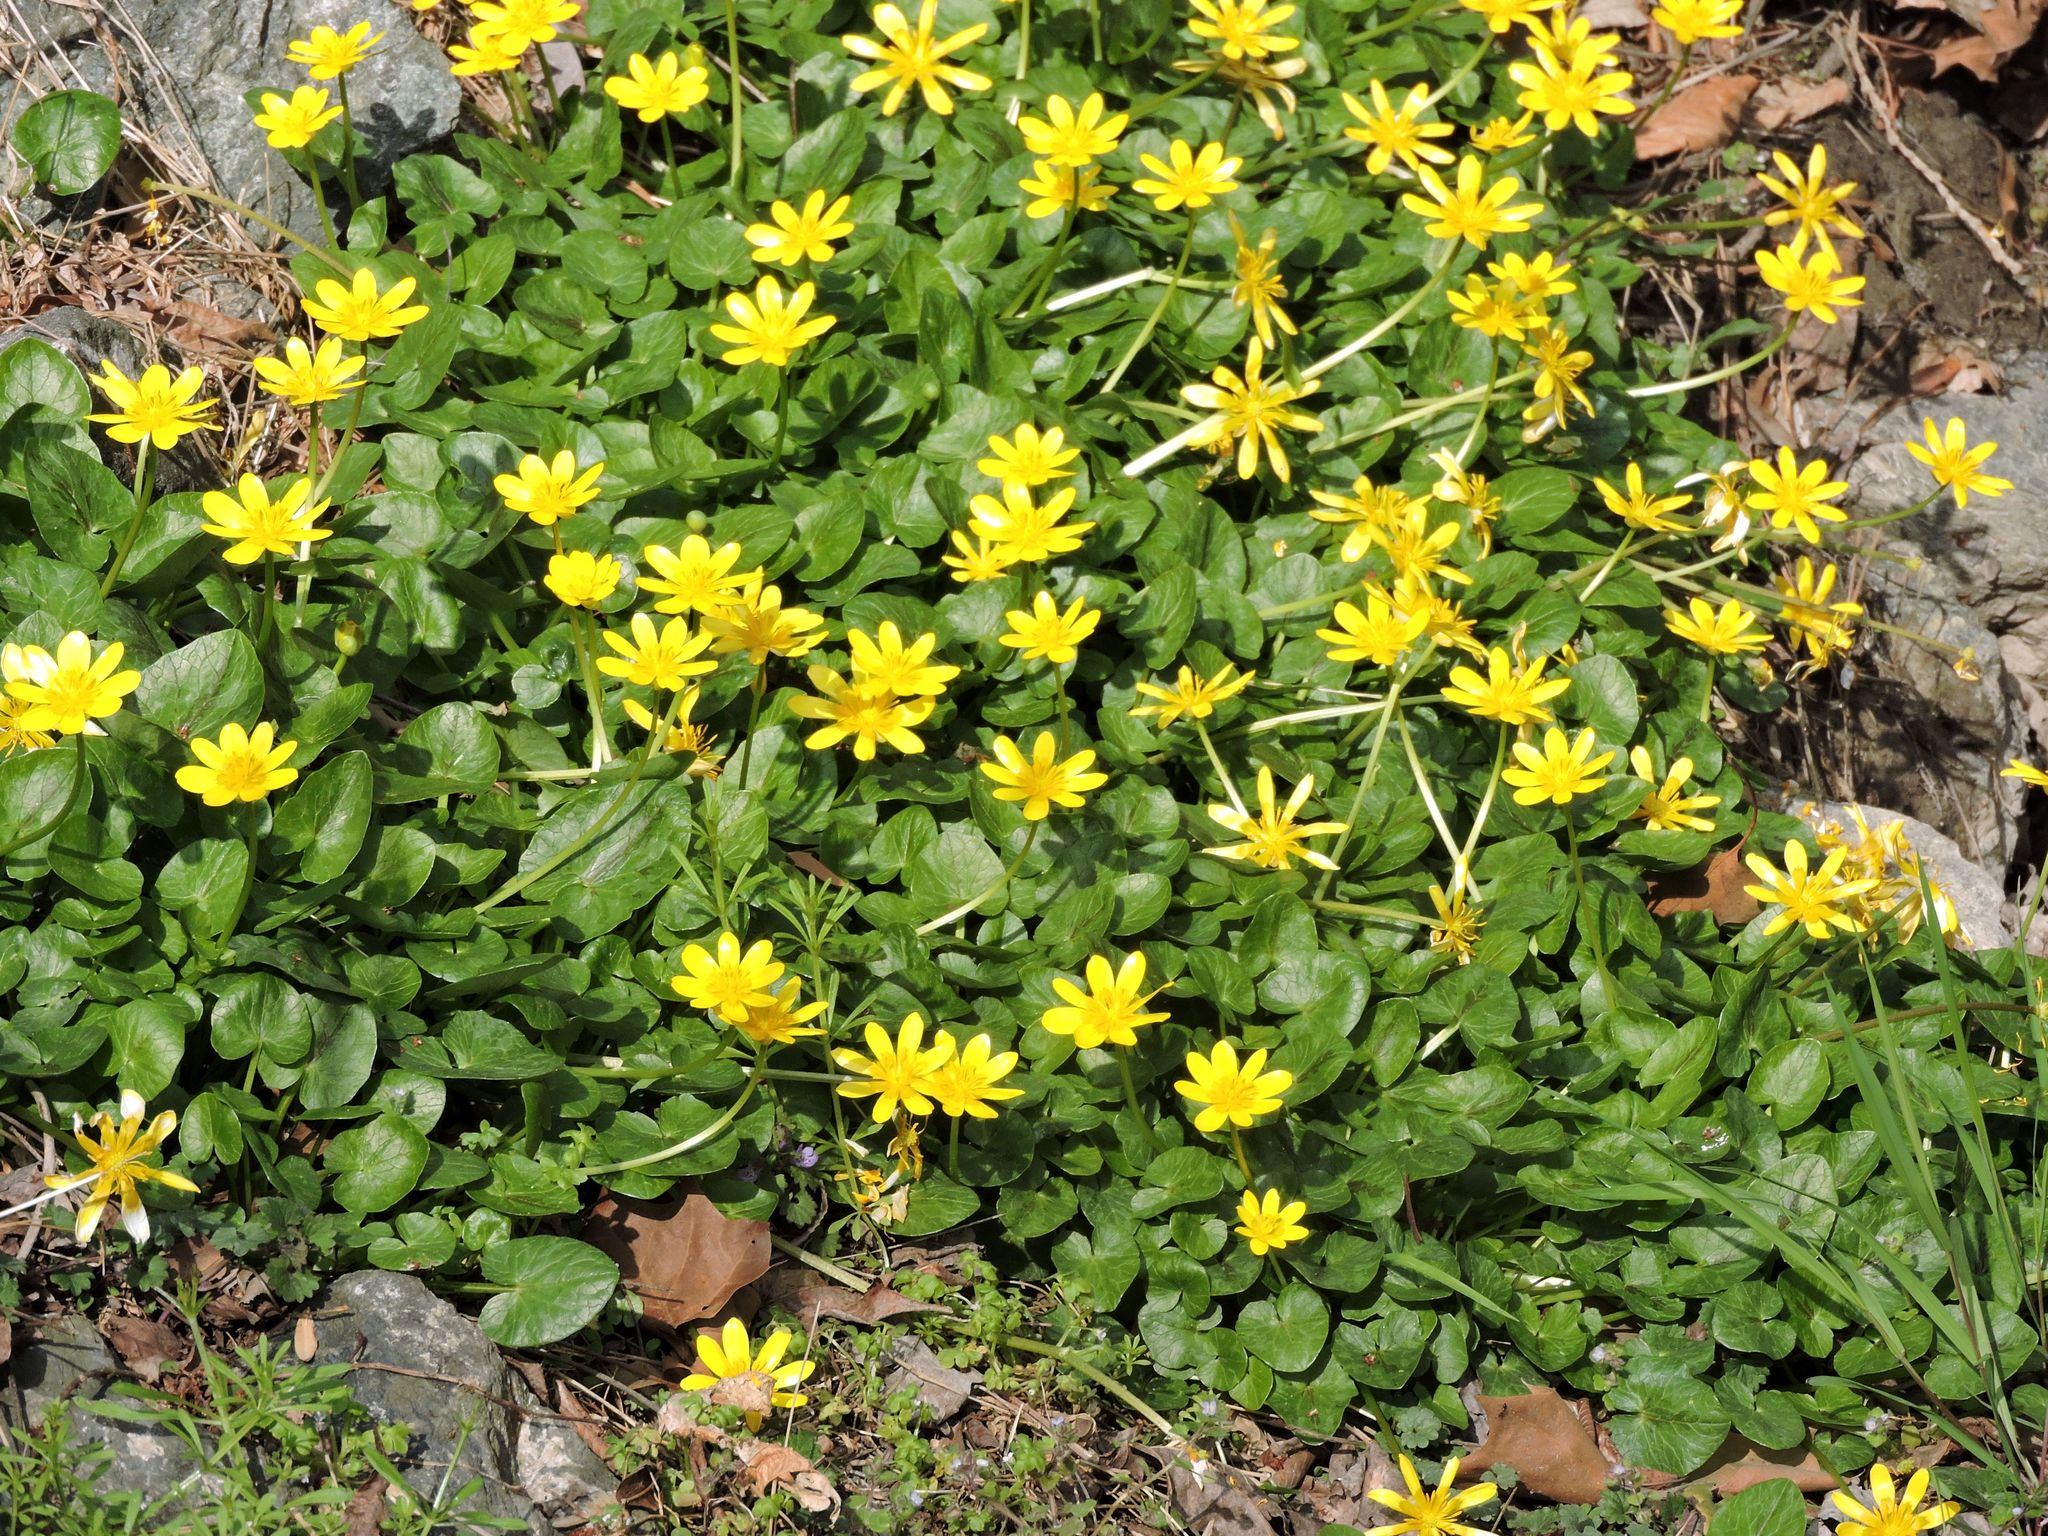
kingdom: Plantae
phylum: Tracheophyta
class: Magnoliopsida
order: Ranunculales
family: Ranunculaceae
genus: Ficaria
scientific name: Ficaria verna
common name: Lesser celandine
